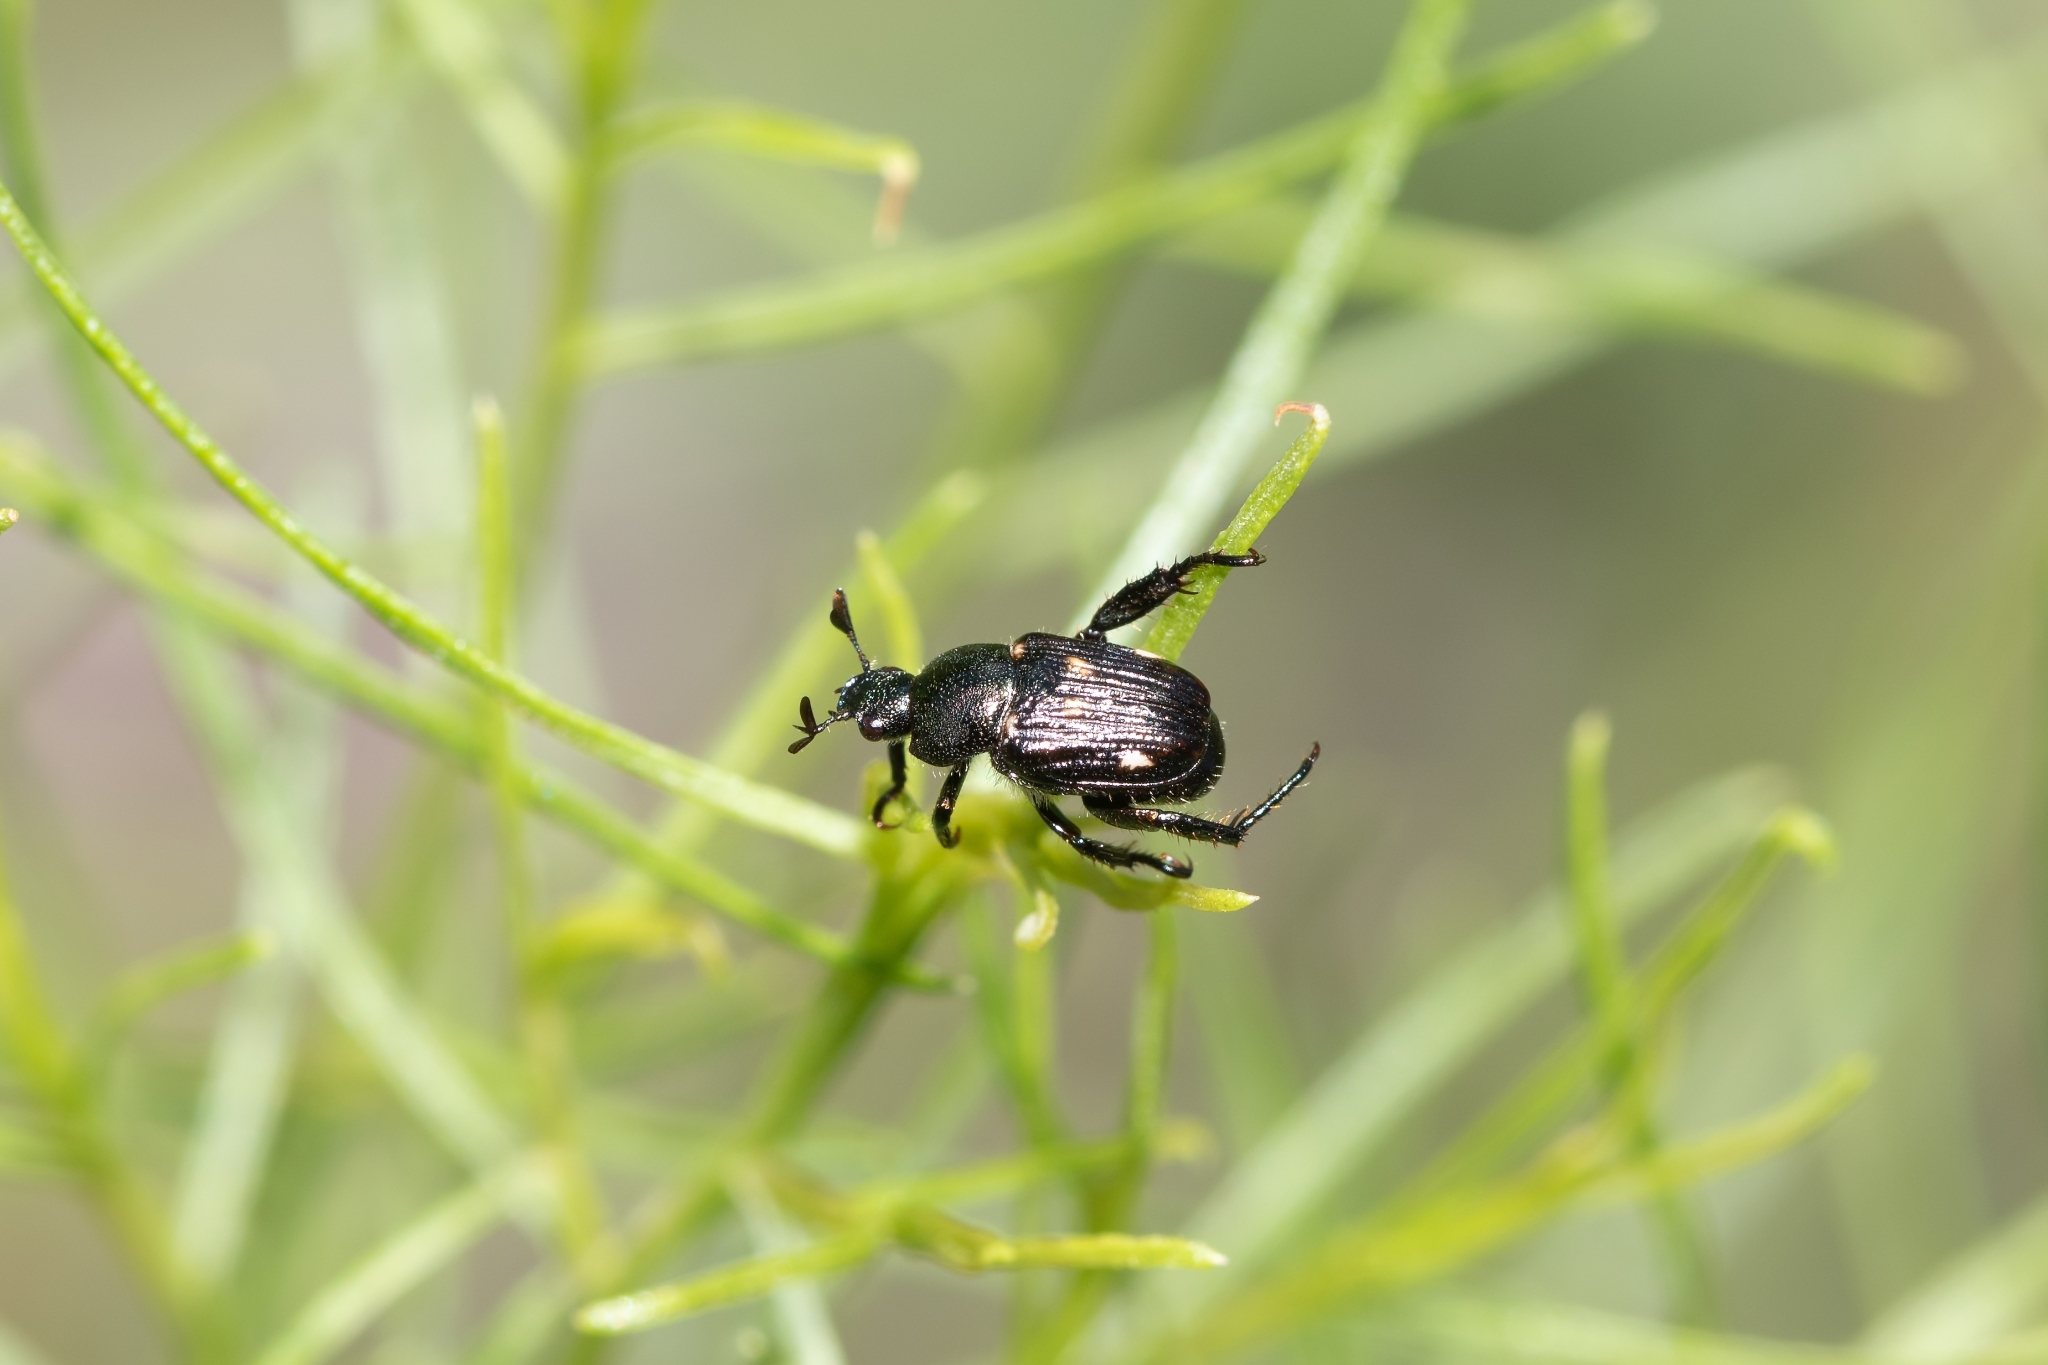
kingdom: Animalia
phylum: Arthropoda
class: Insecta
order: Coleoptera
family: Scarabaeidae
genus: Strigoderma
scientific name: Strigoderma pygmaea
